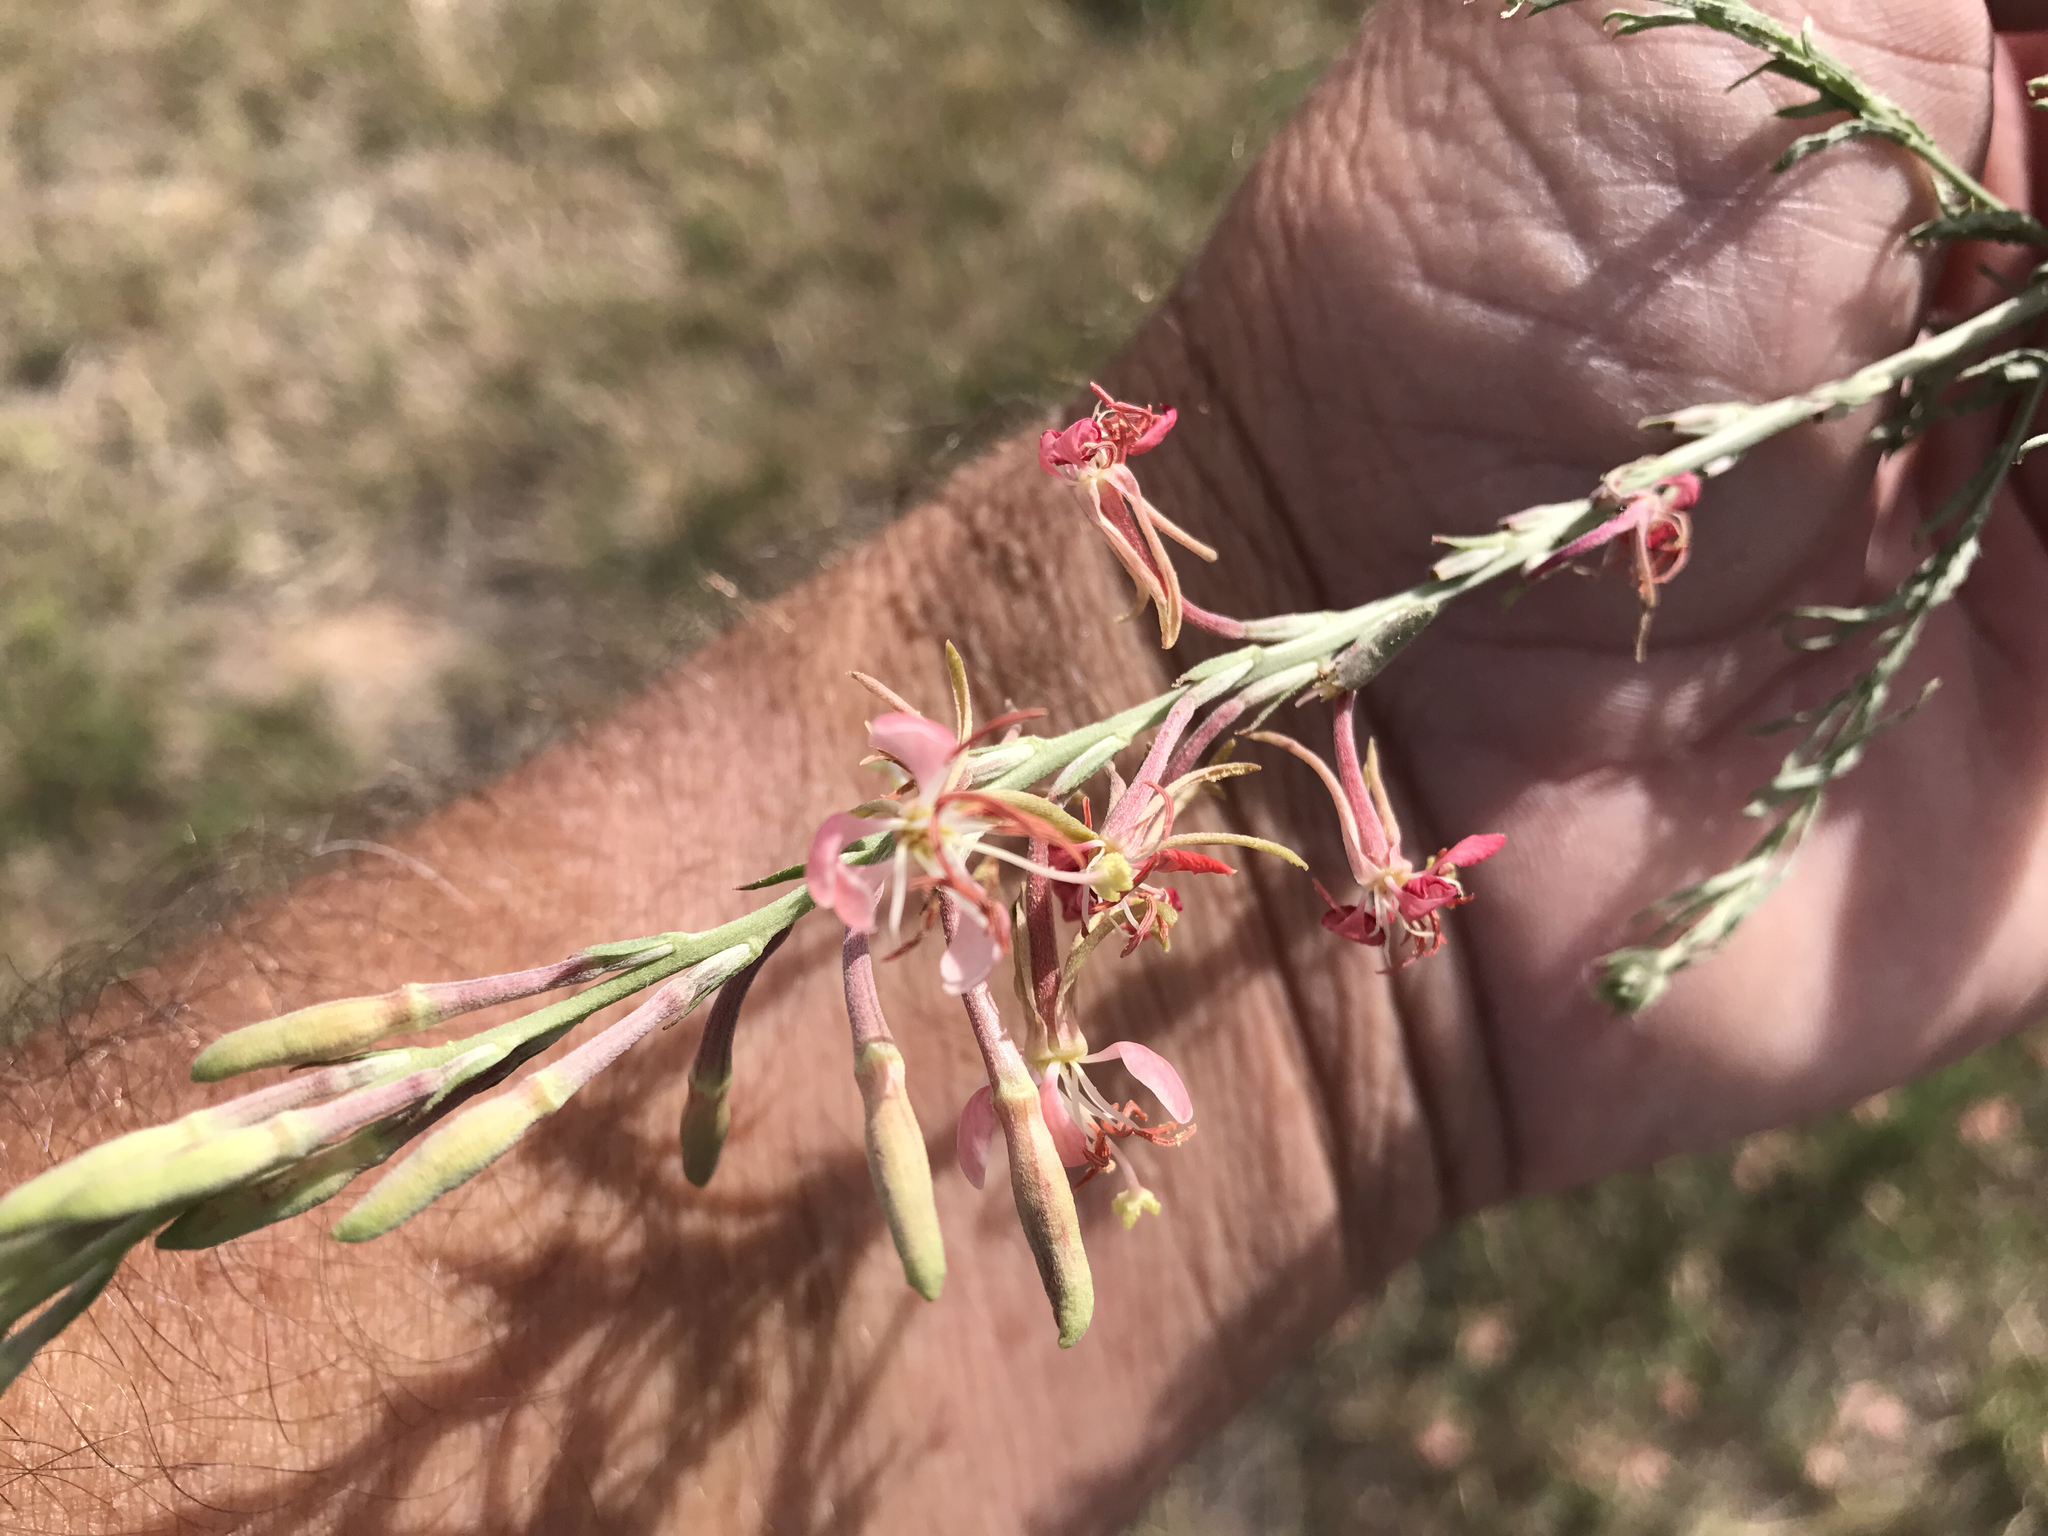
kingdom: Plantae
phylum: Tracheophyta
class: Magnoliopsida
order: Myrtales
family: Onagraceae
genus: Oenothera
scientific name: Oenothera suffrutescens
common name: Scarlet beeblossom
